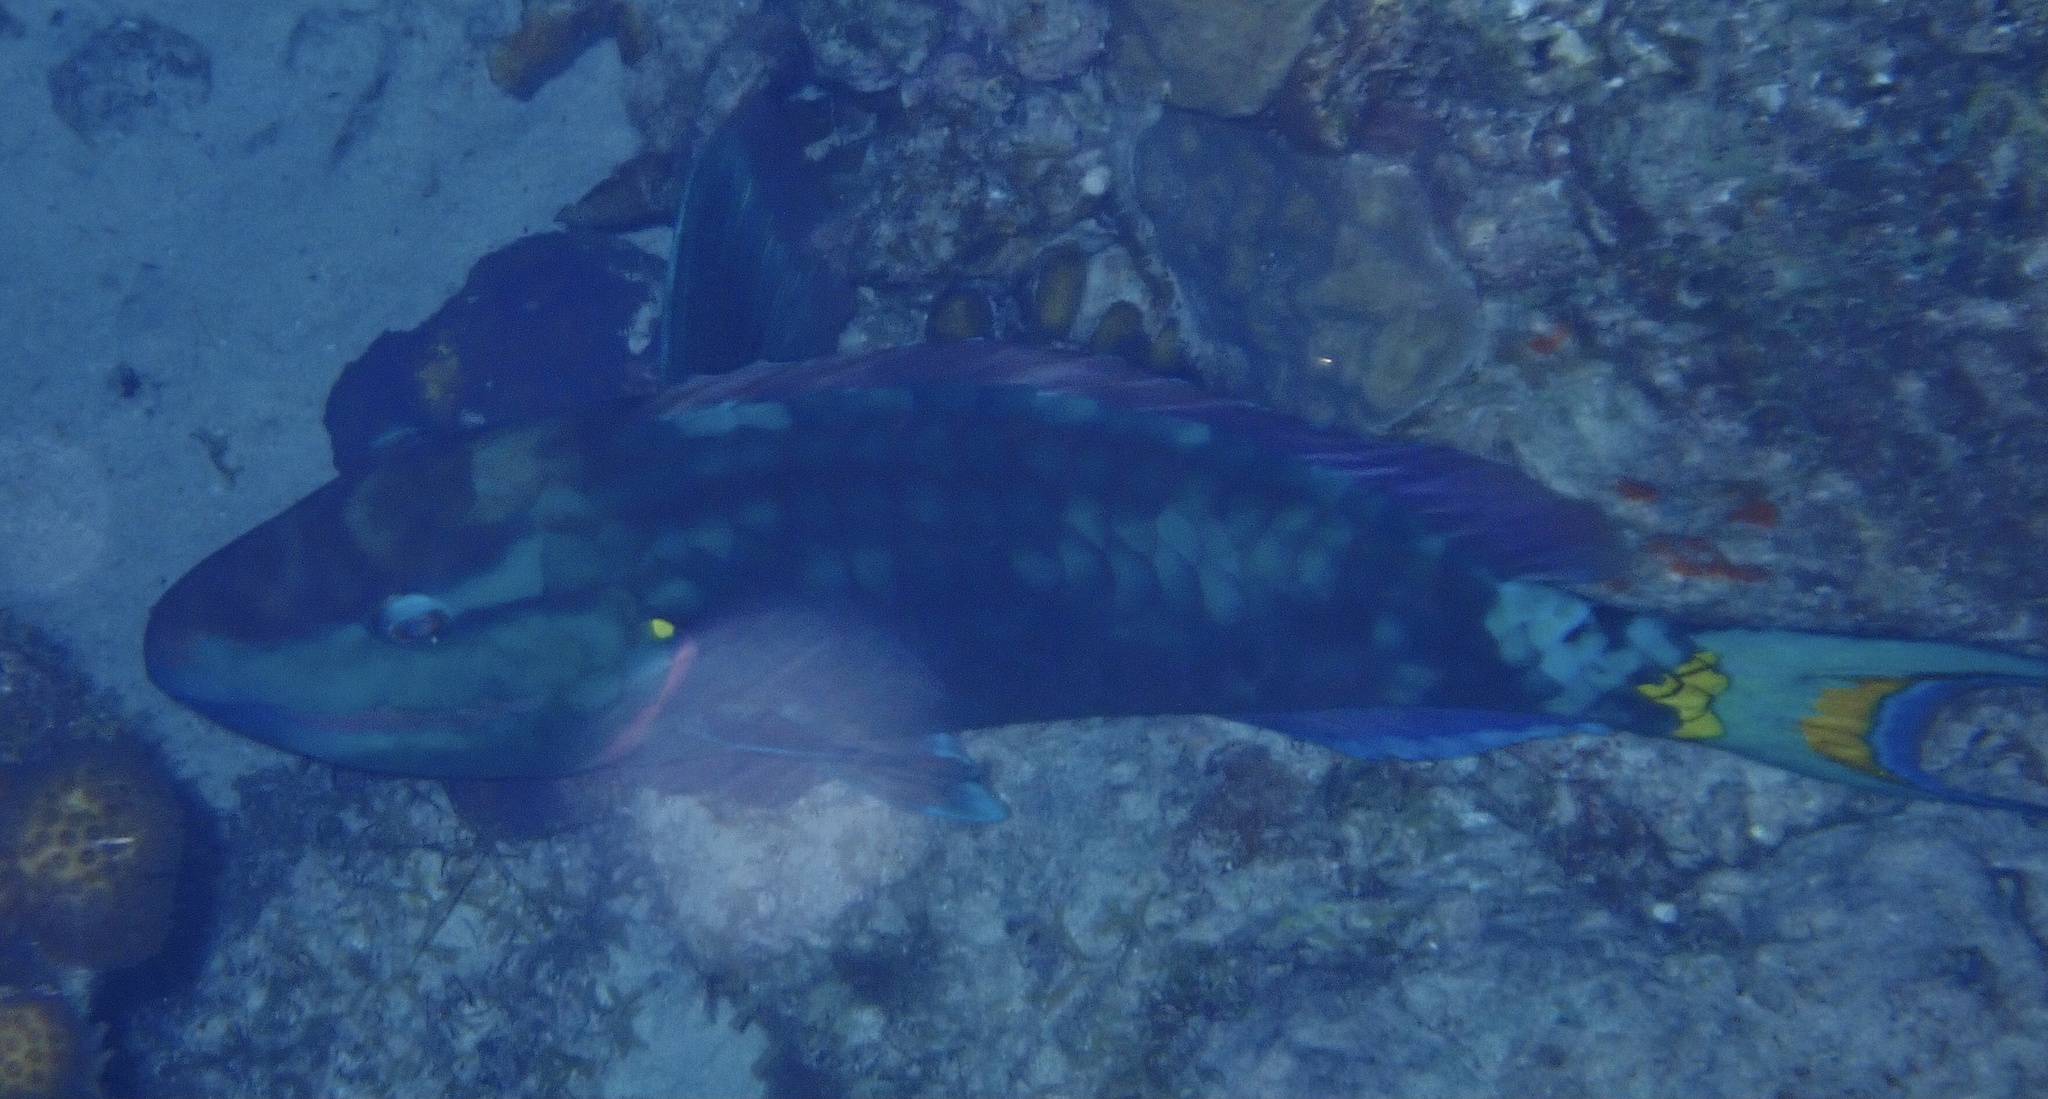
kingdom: Animalia
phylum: Chordata
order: Perciformes
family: Scaridae
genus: Sparisoma
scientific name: Sparisoma viride
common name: Stoplight parrotfish
